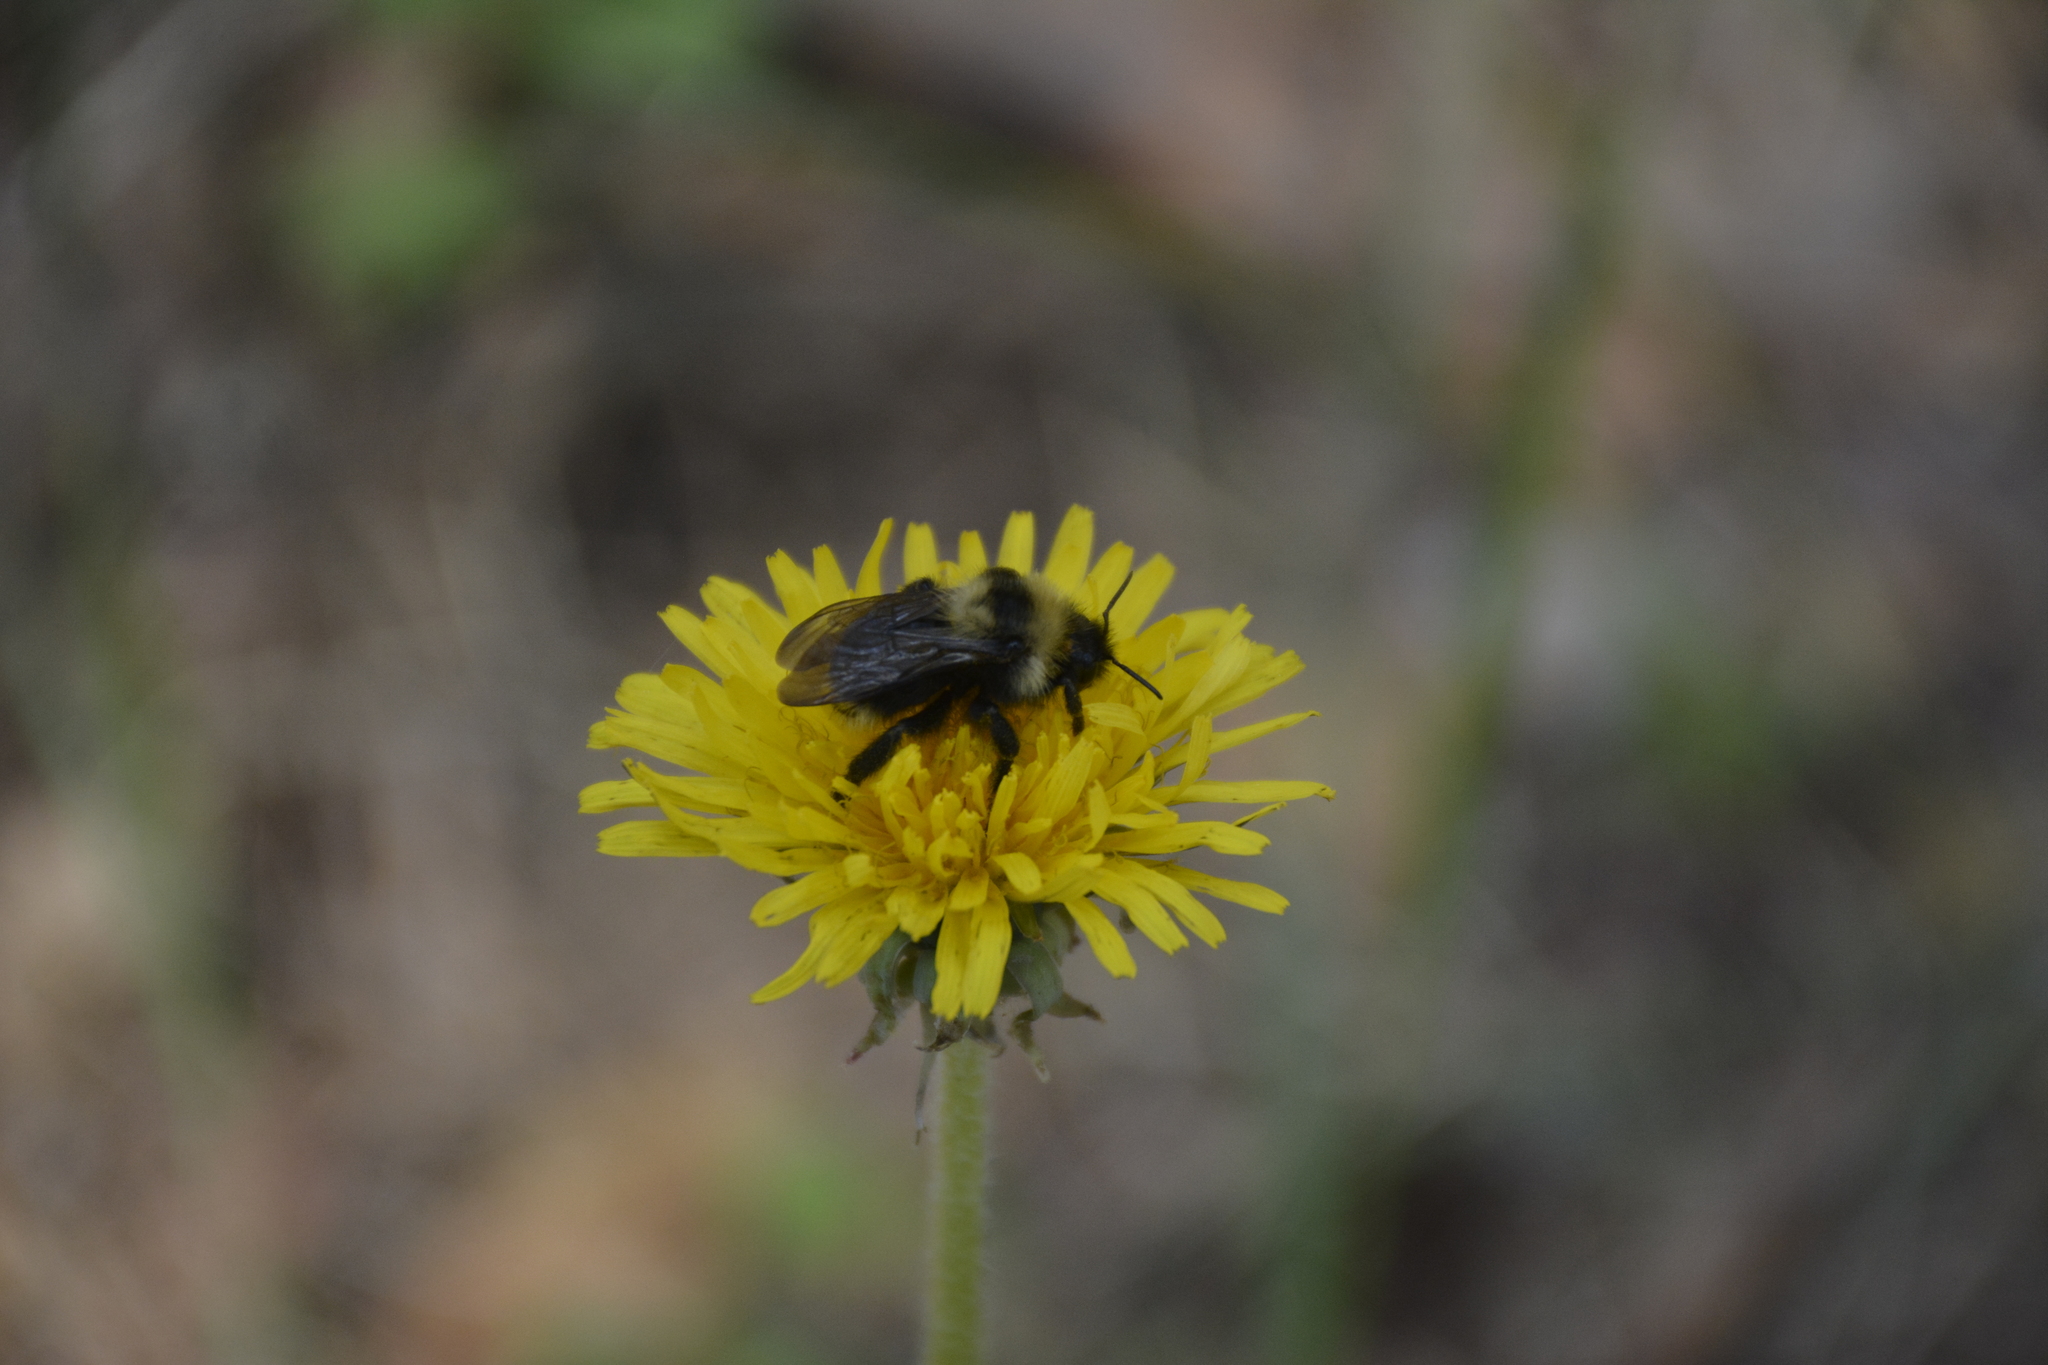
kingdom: Animalia
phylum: Arthropoda
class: Insecta
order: Hymenoptera
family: Apidae
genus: Bombus
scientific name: Bombus campestris
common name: Field cuckoo-bee
